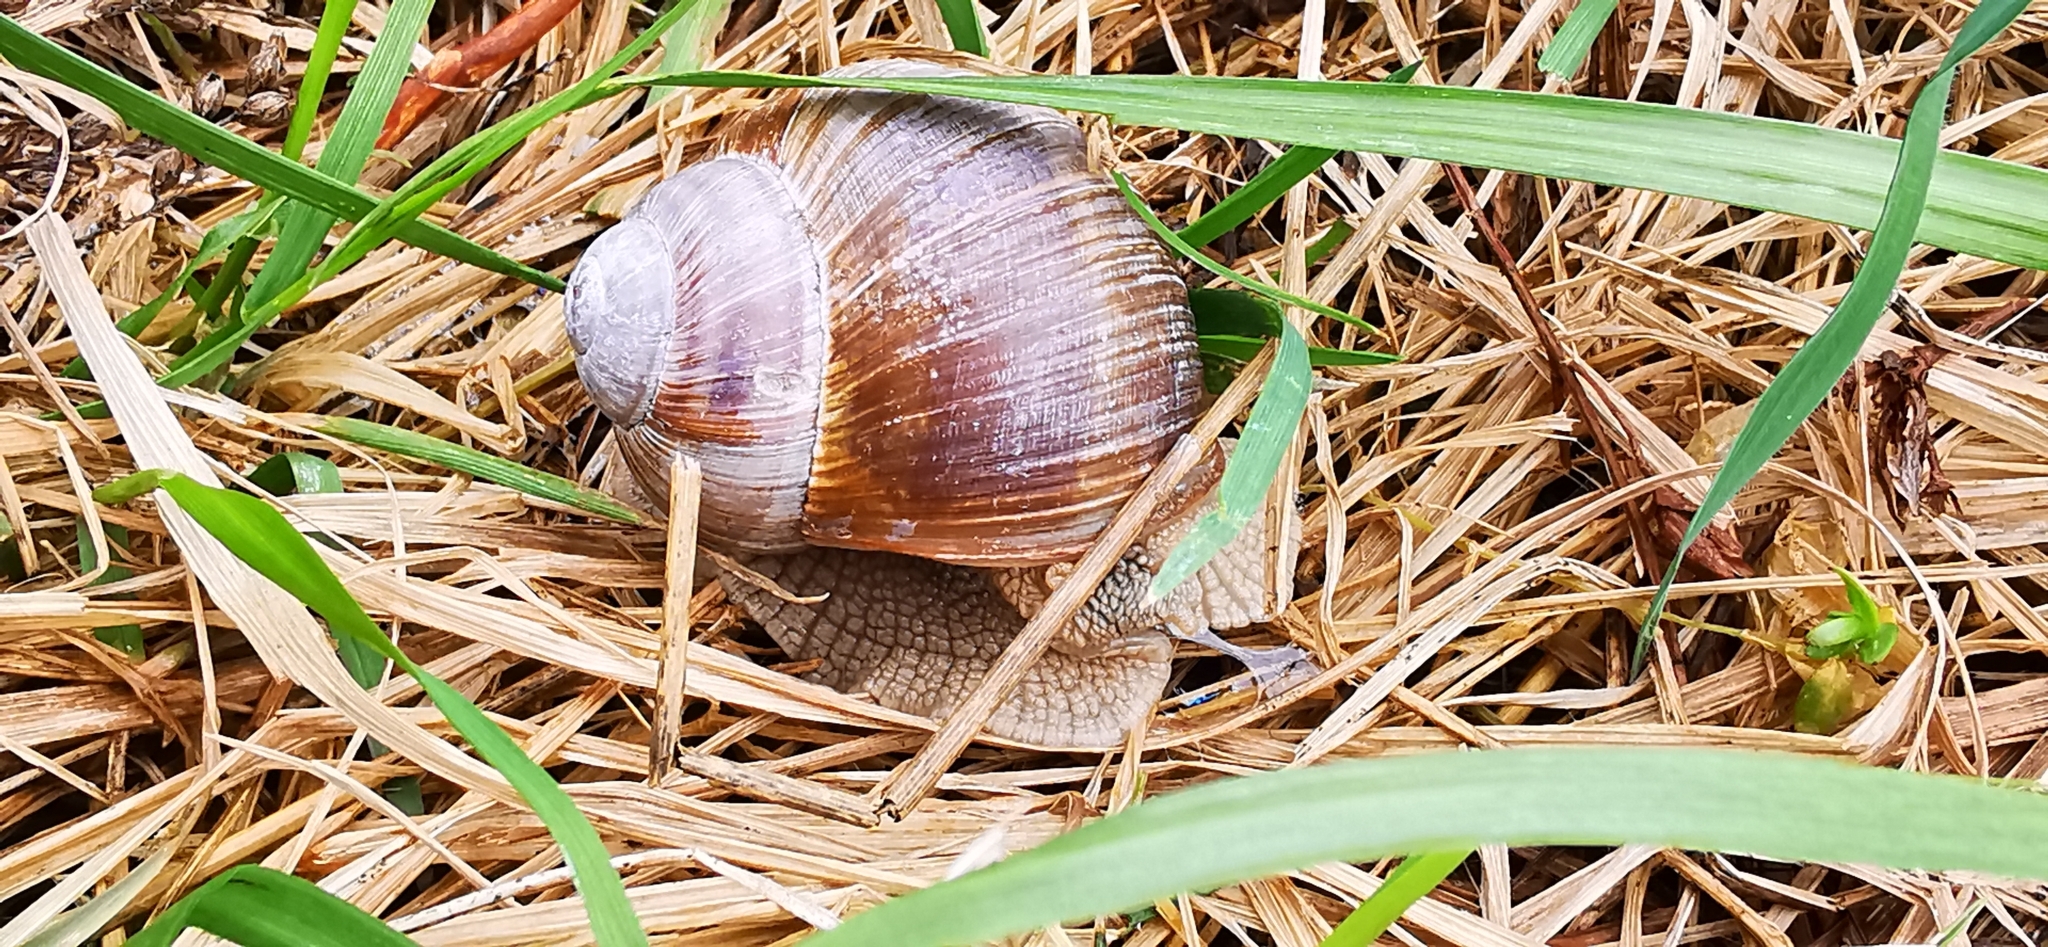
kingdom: Animalia
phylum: Mollusca
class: Gastropoda
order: Stylommatophora
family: Helicidae
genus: Helix
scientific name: Helix pomatia
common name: Roman snail
